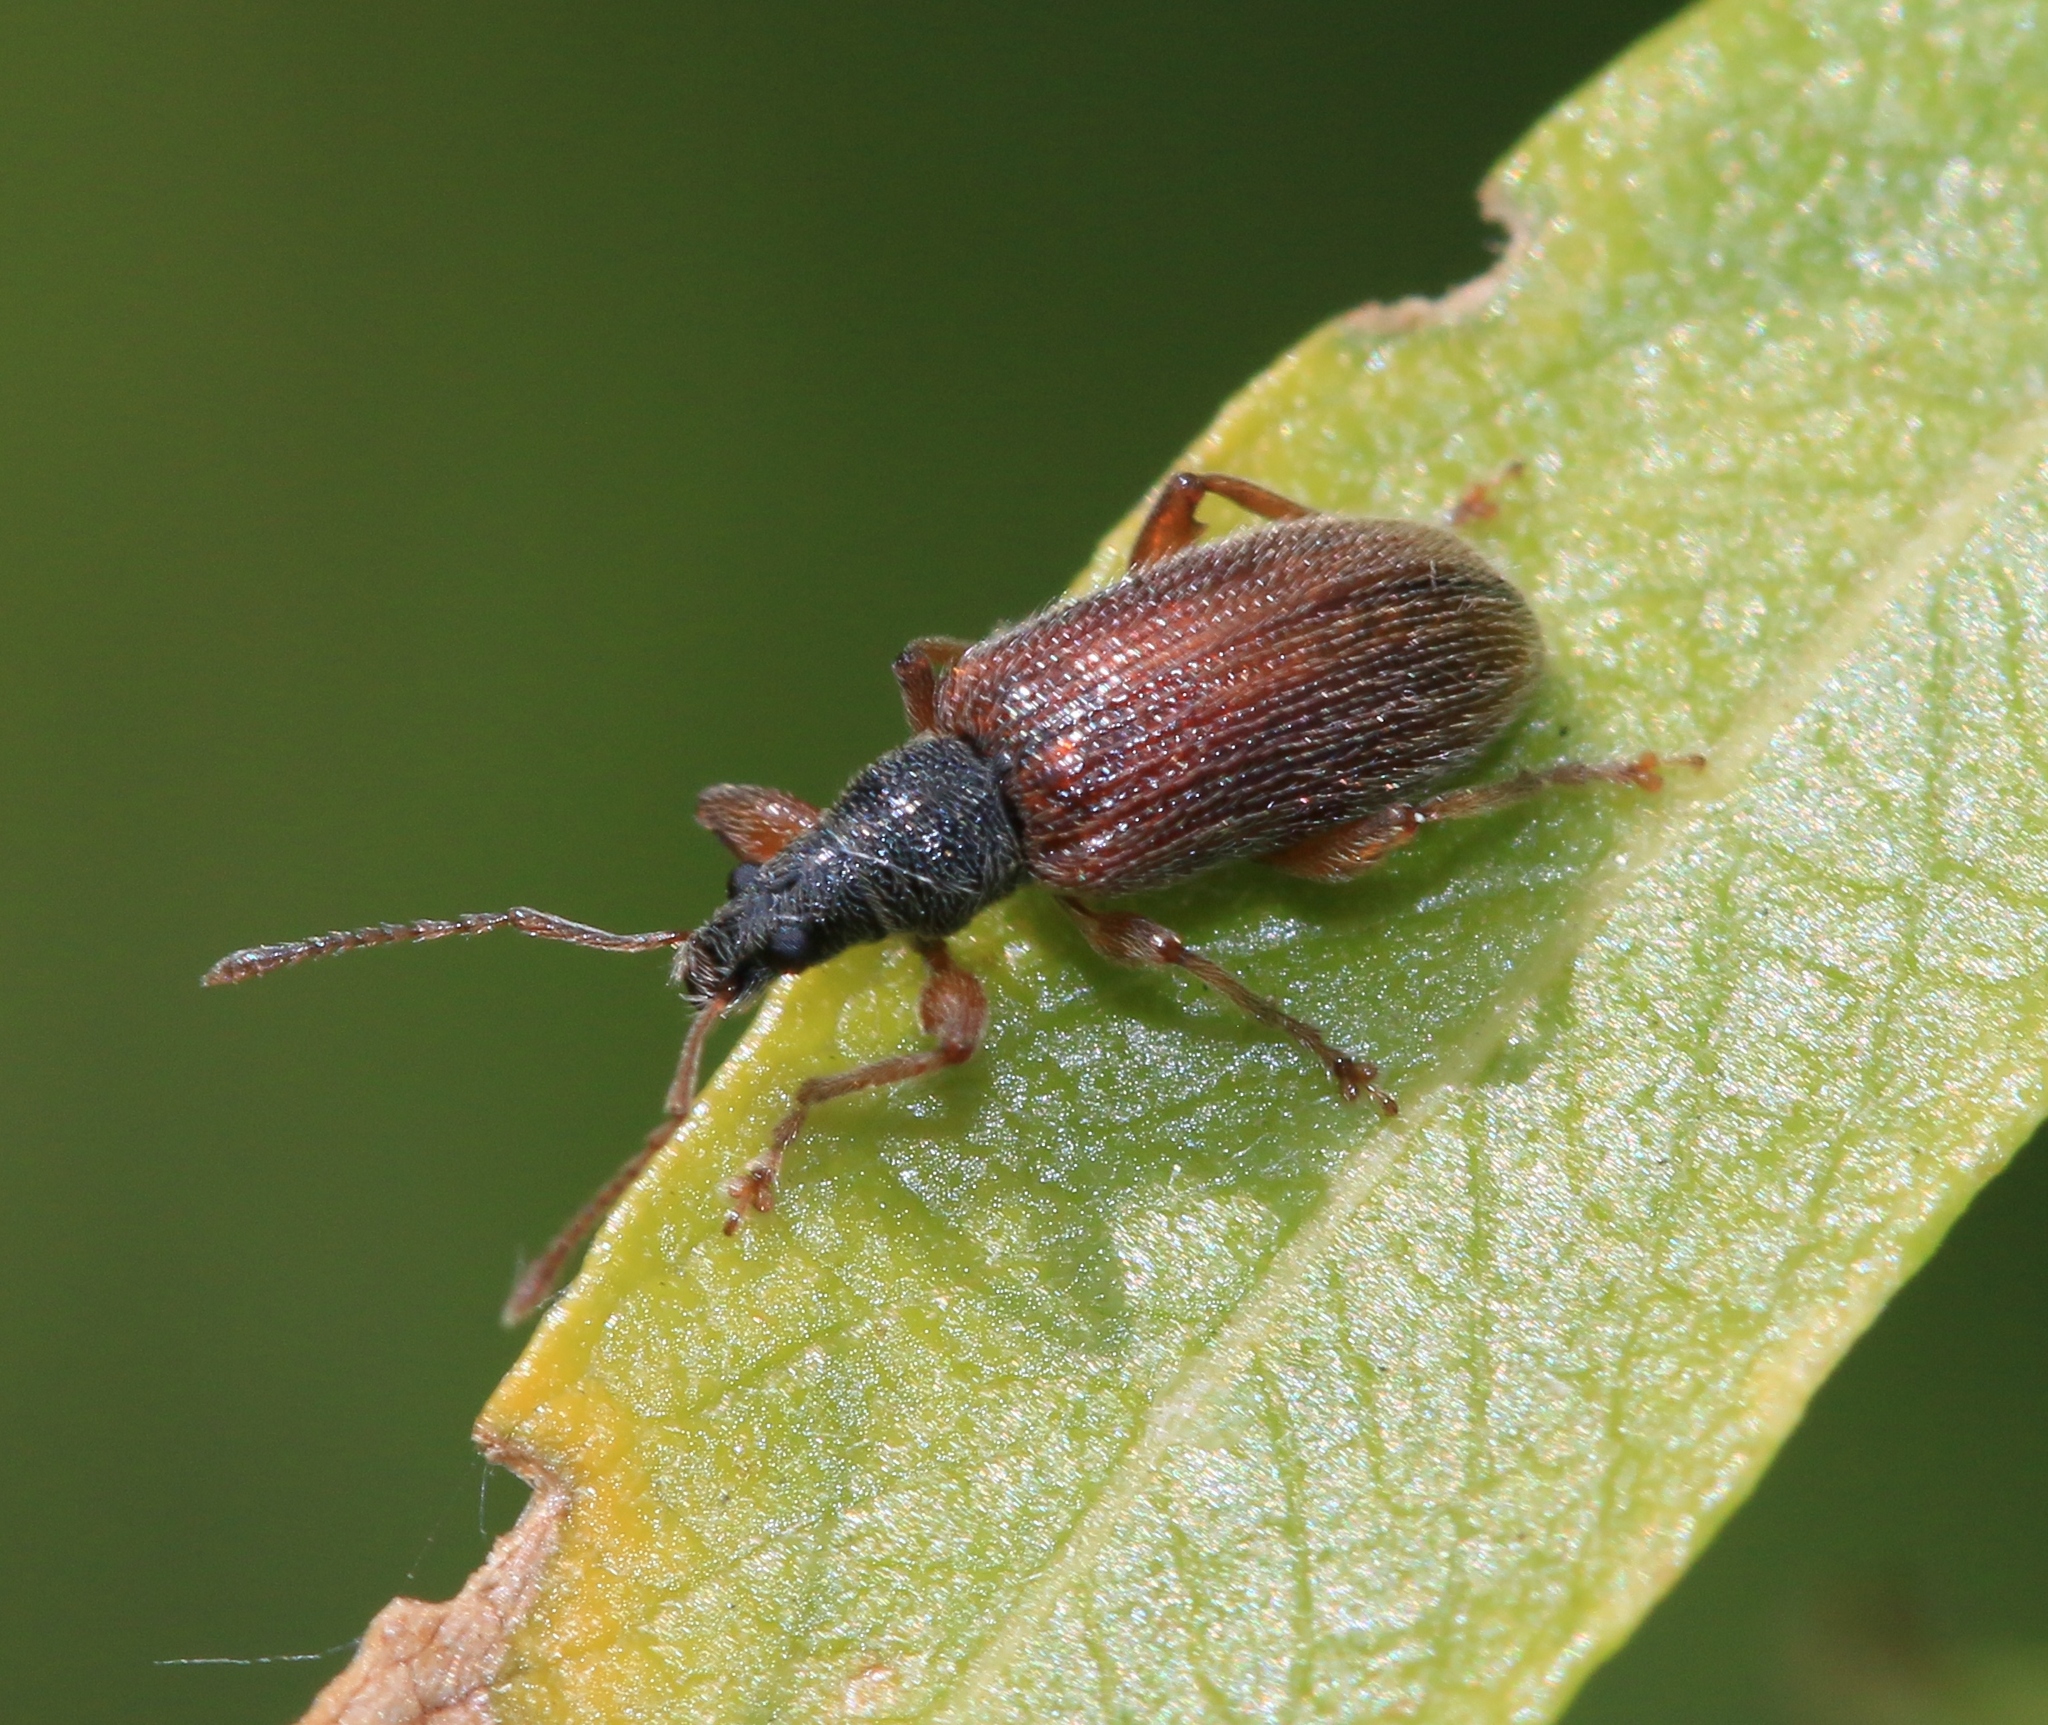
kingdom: Animalia
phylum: Arthropoda
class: Insecta
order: Coleoptera
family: Curculionidae
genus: Phyllobius
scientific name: Phyllobius oblongus
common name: Brown leaf weevil
